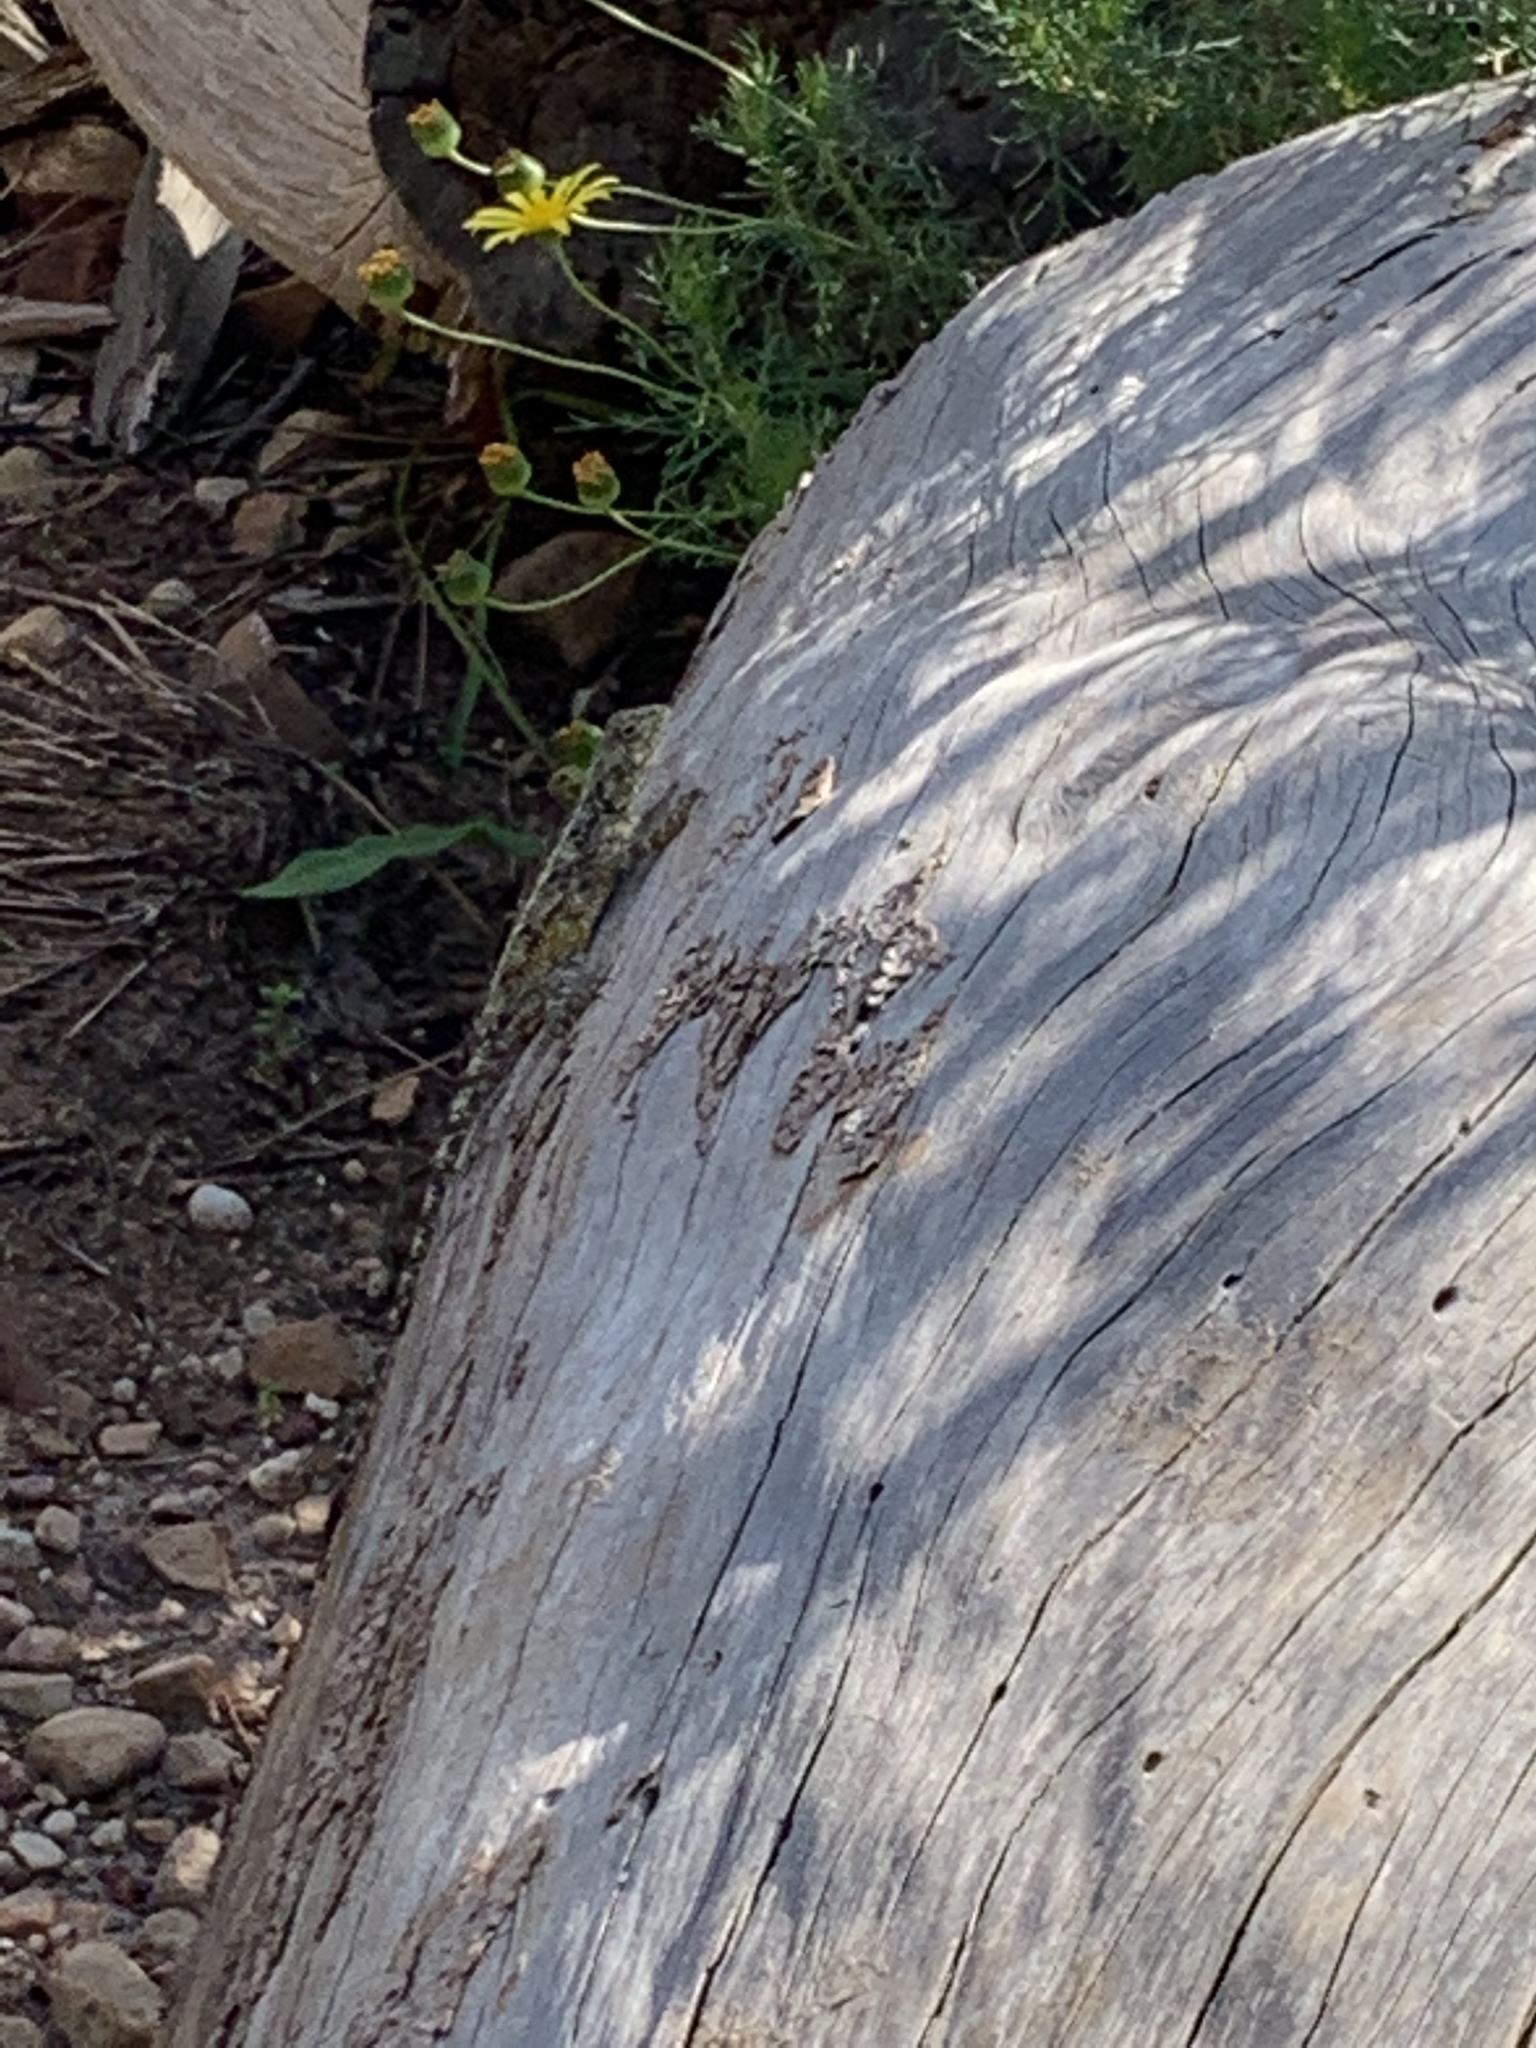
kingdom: Animalia
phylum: Chordata
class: Squamata
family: Agamidae
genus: Agama
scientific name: Agama atra
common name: Southern african rock agama
